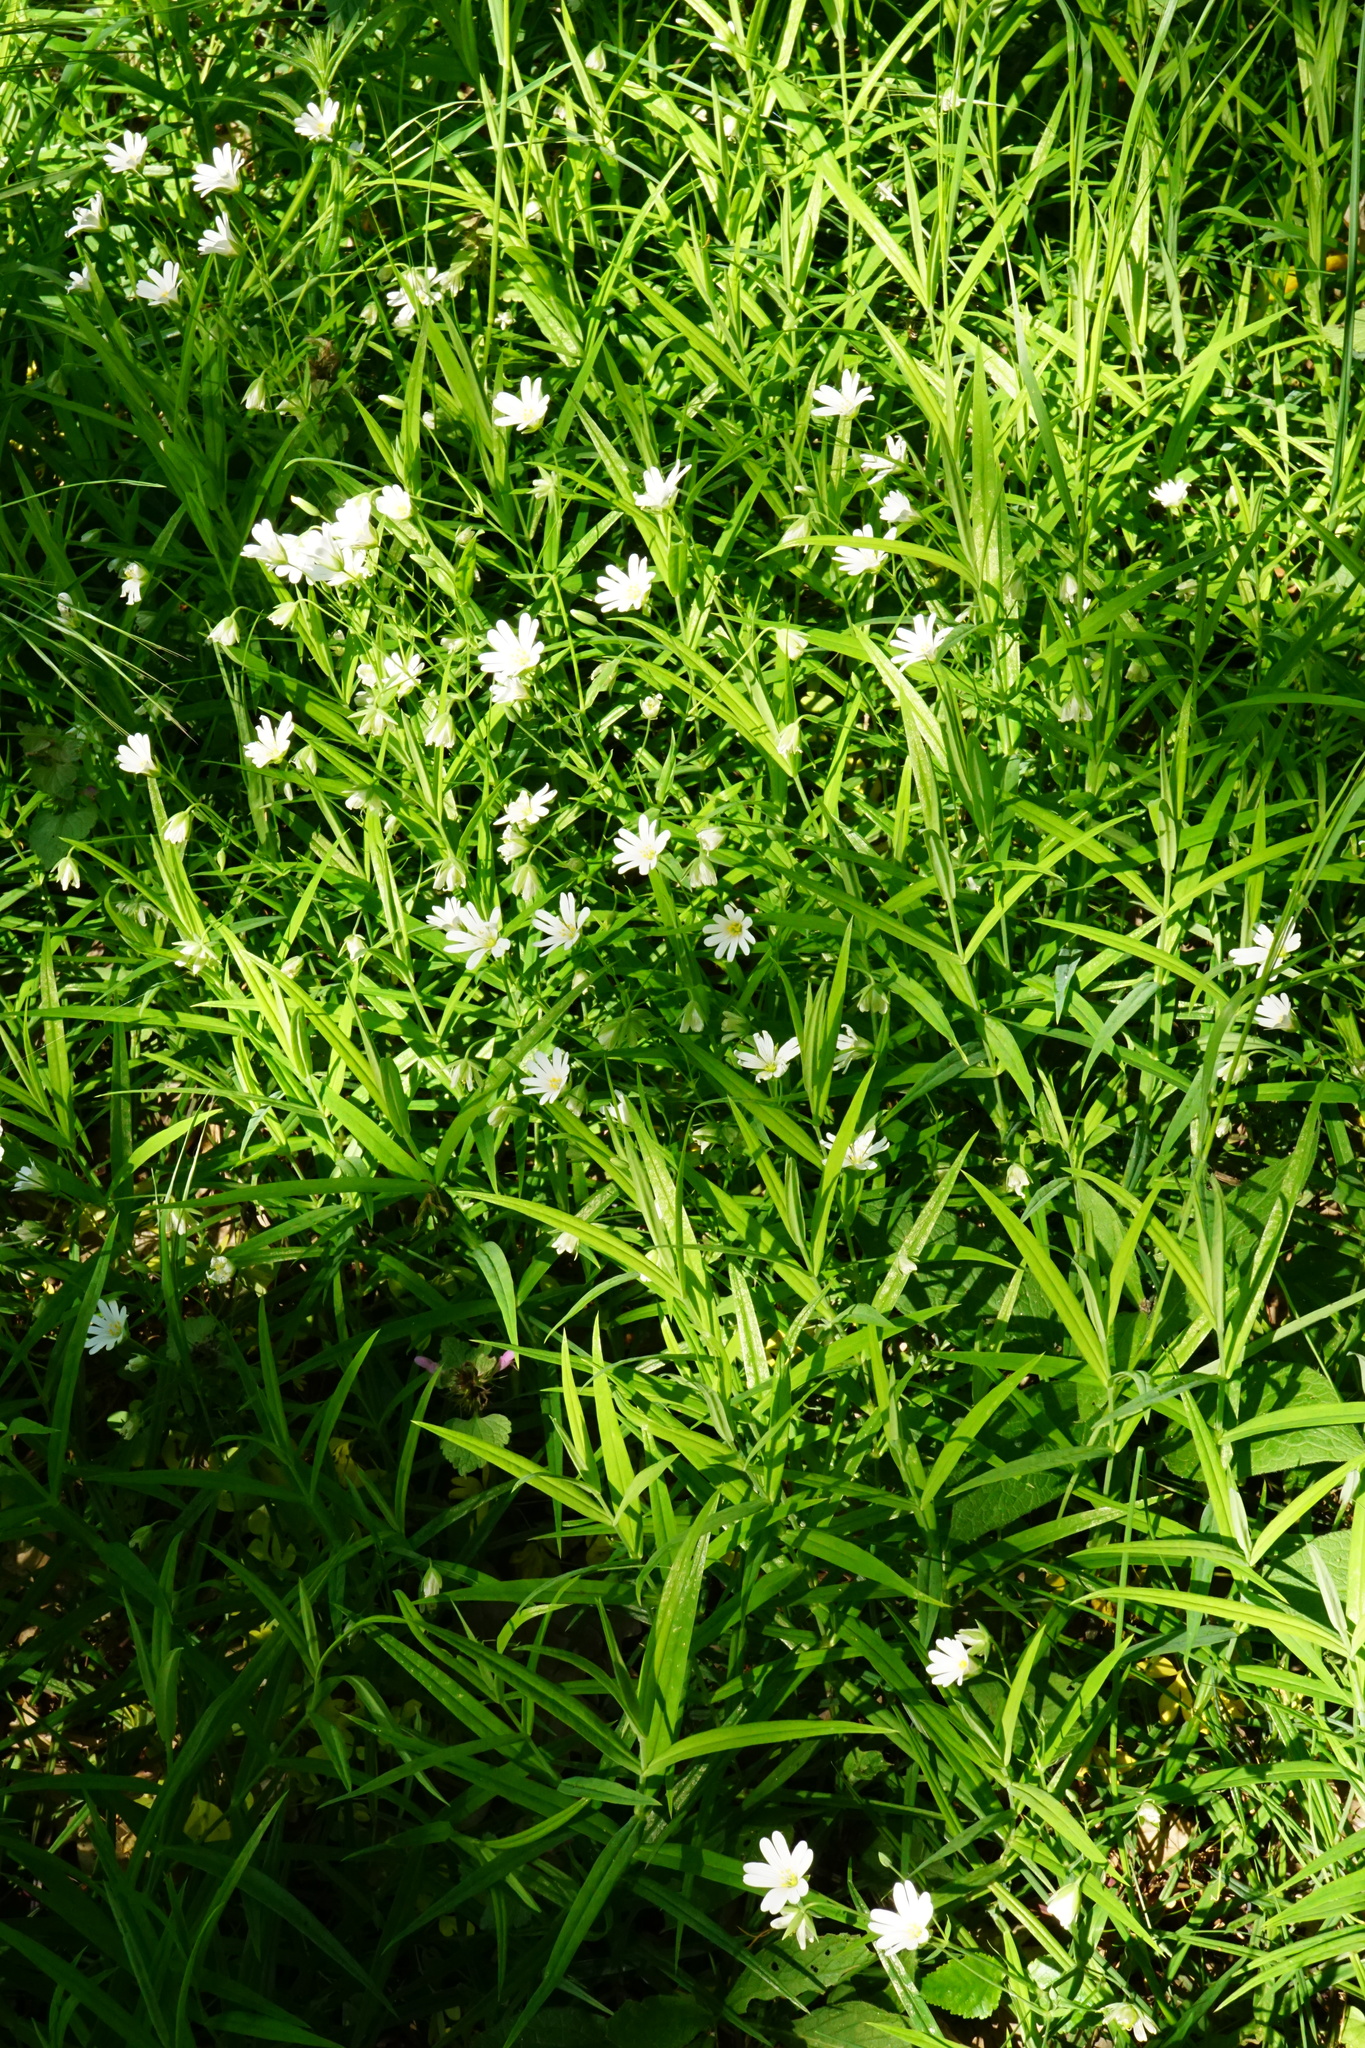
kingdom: Plantae
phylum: Tracheophyta
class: Magnoliopsida
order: Caryophyllales
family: Caryophyllaceae
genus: Rabelera
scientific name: Rabelera holostea
